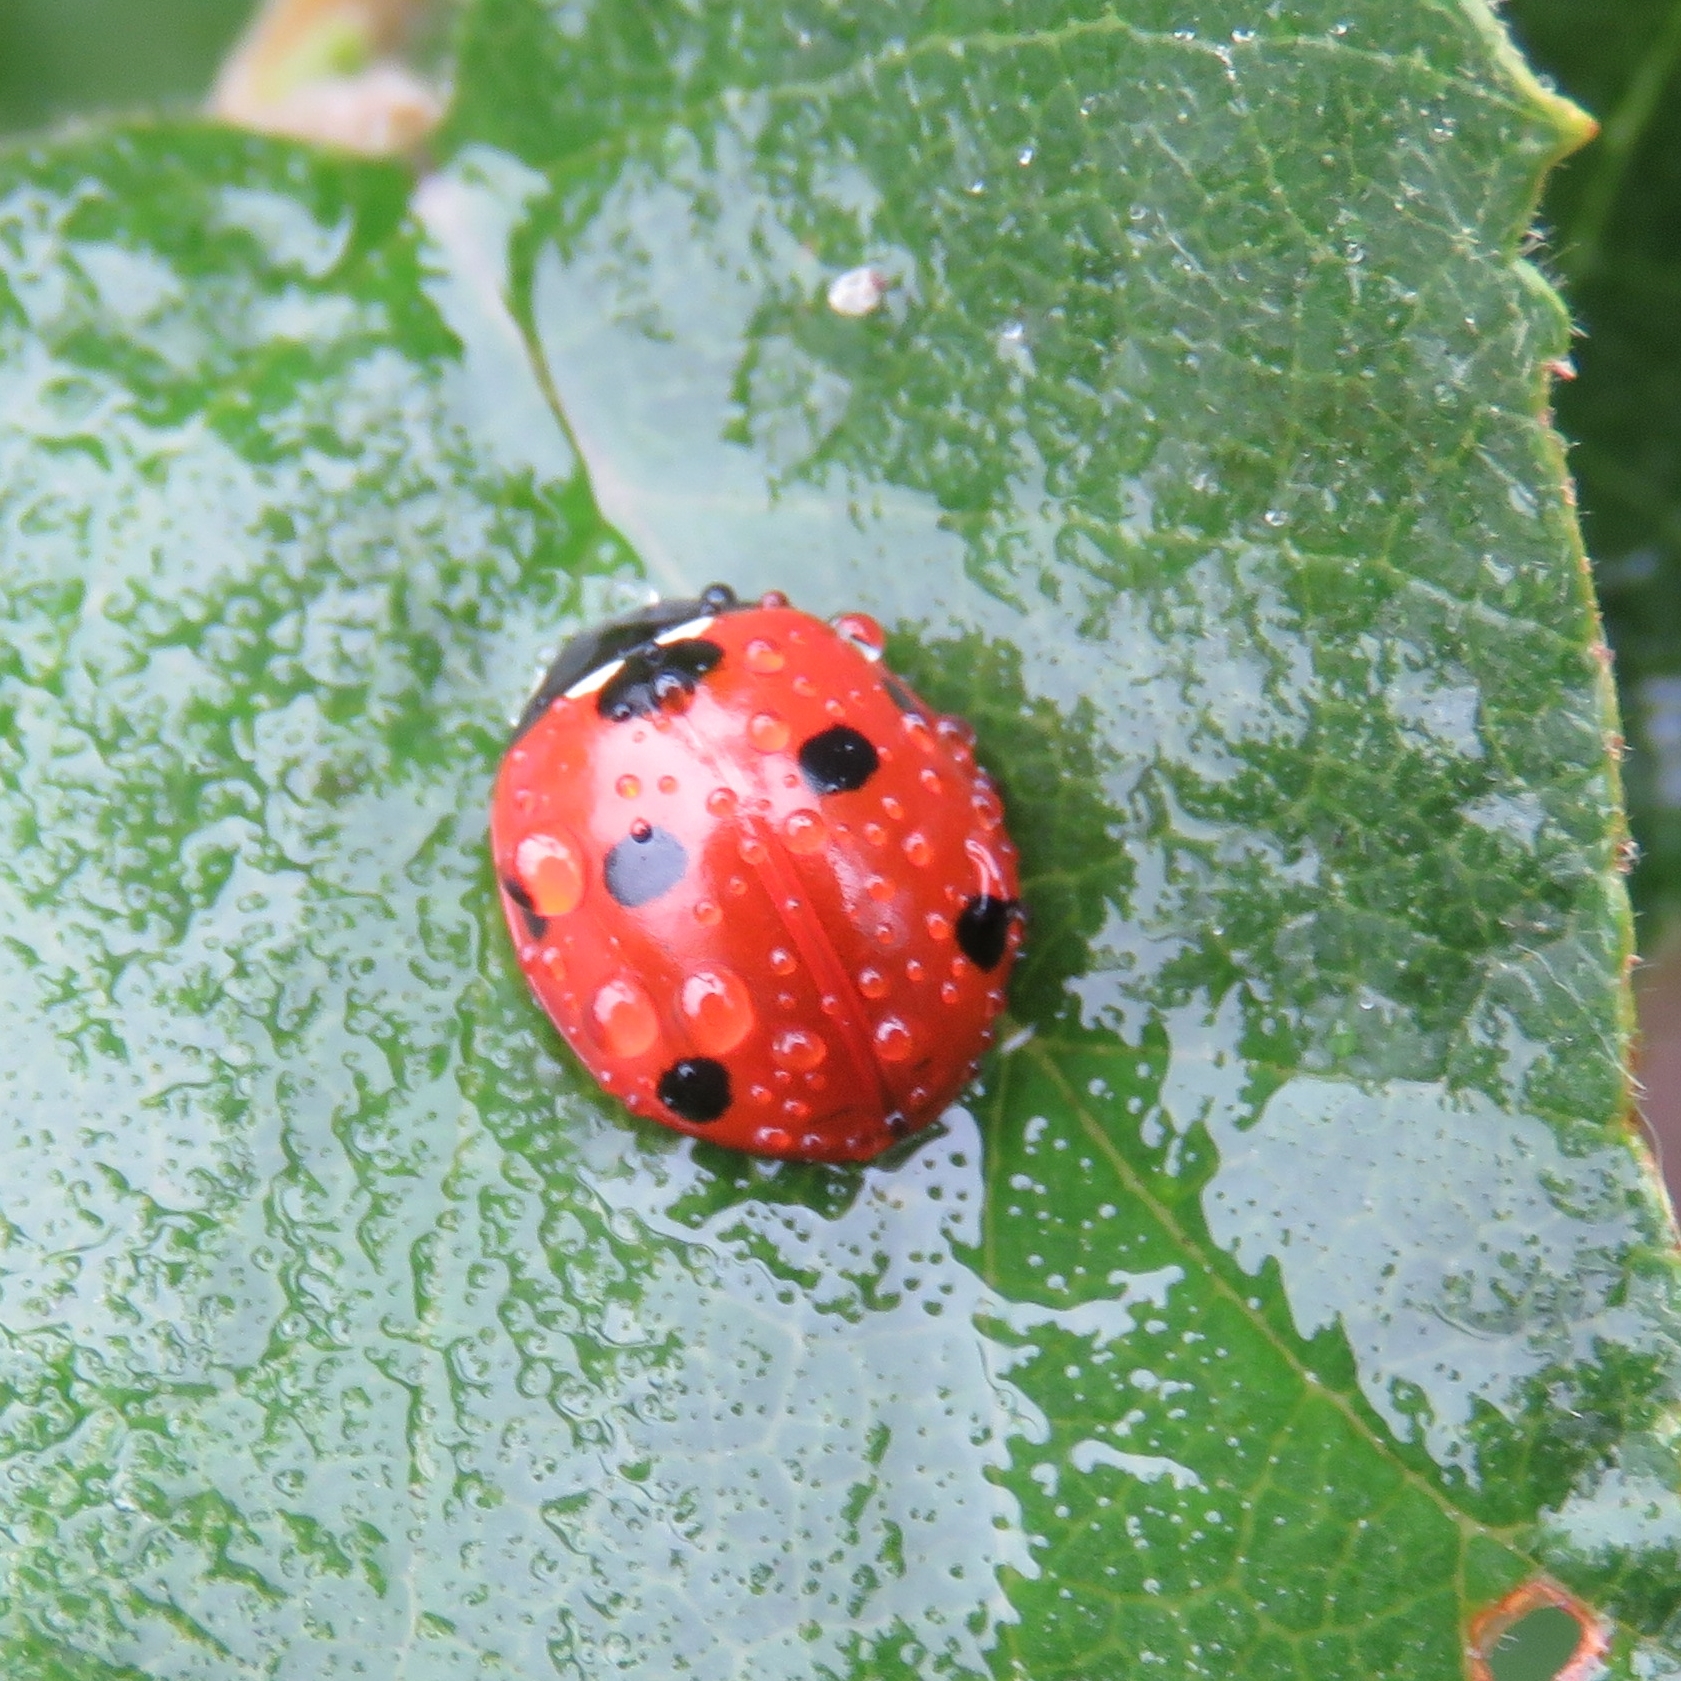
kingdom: Animalia
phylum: Arthropoda
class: Insecta
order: Coleoptera
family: Coccinellidae
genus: Coccinella
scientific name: Coccinella septempunctata
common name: Sevenspotted lady beetle
